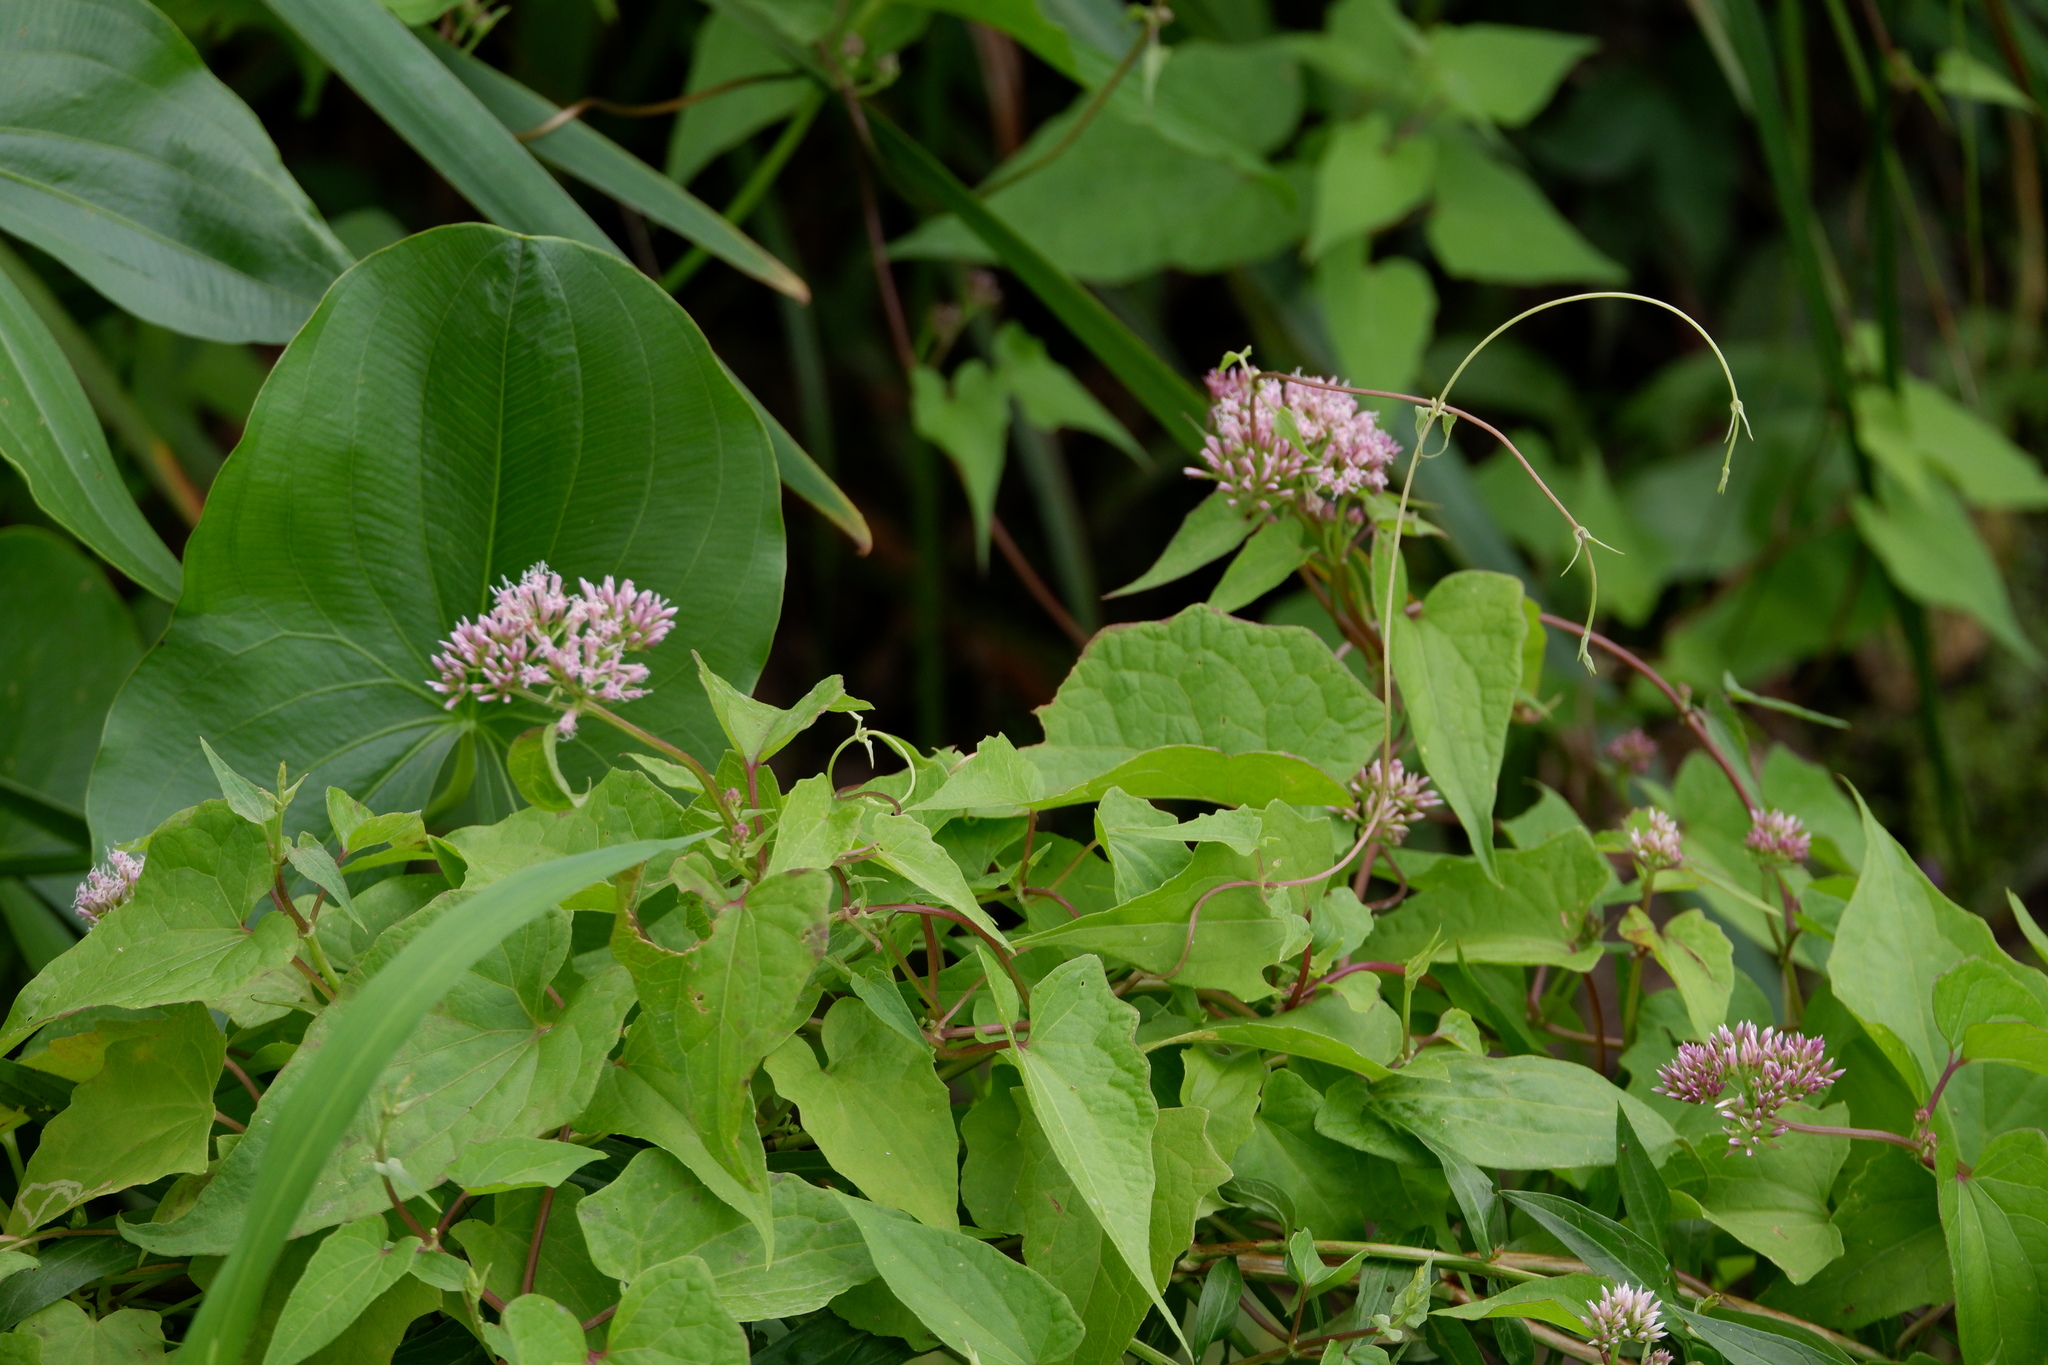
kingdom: Plantae
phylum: Tracheophyta
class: Magnoliopsida
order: Asterales
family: Asteraceae
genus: Mikania
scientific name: Mikania scandens
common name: Climbing hempvine
